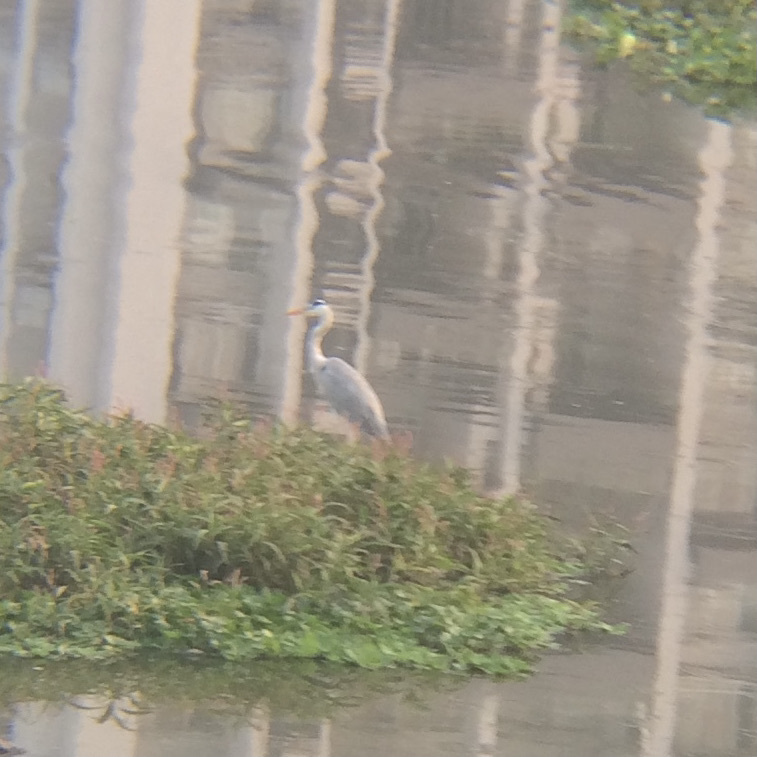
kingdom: Animalia
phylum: Chordata
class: Aves
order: Pelecaniformes
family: Ardeidae
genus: Ardea
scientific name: Ardea cinerea
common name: Grey heron
